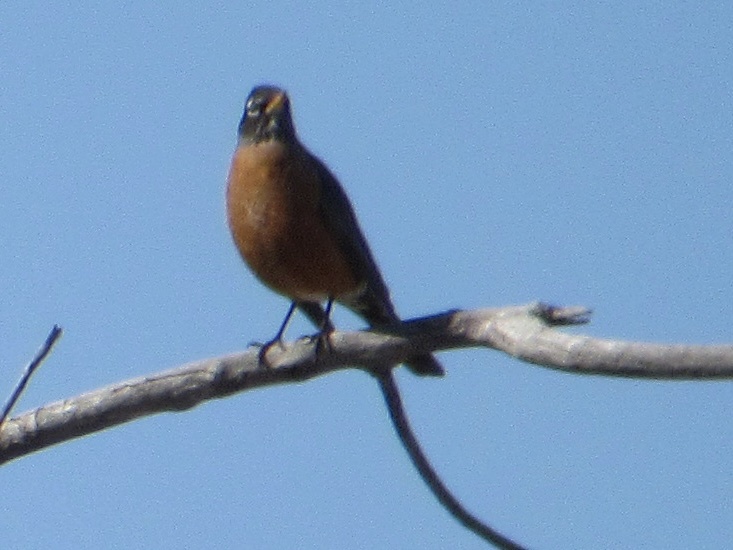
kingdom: Animalia
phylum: Chordata
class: Aves
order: Passeriformes
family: Turdidae
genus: Turdus
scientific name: Turdus migratorius
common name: American robin
